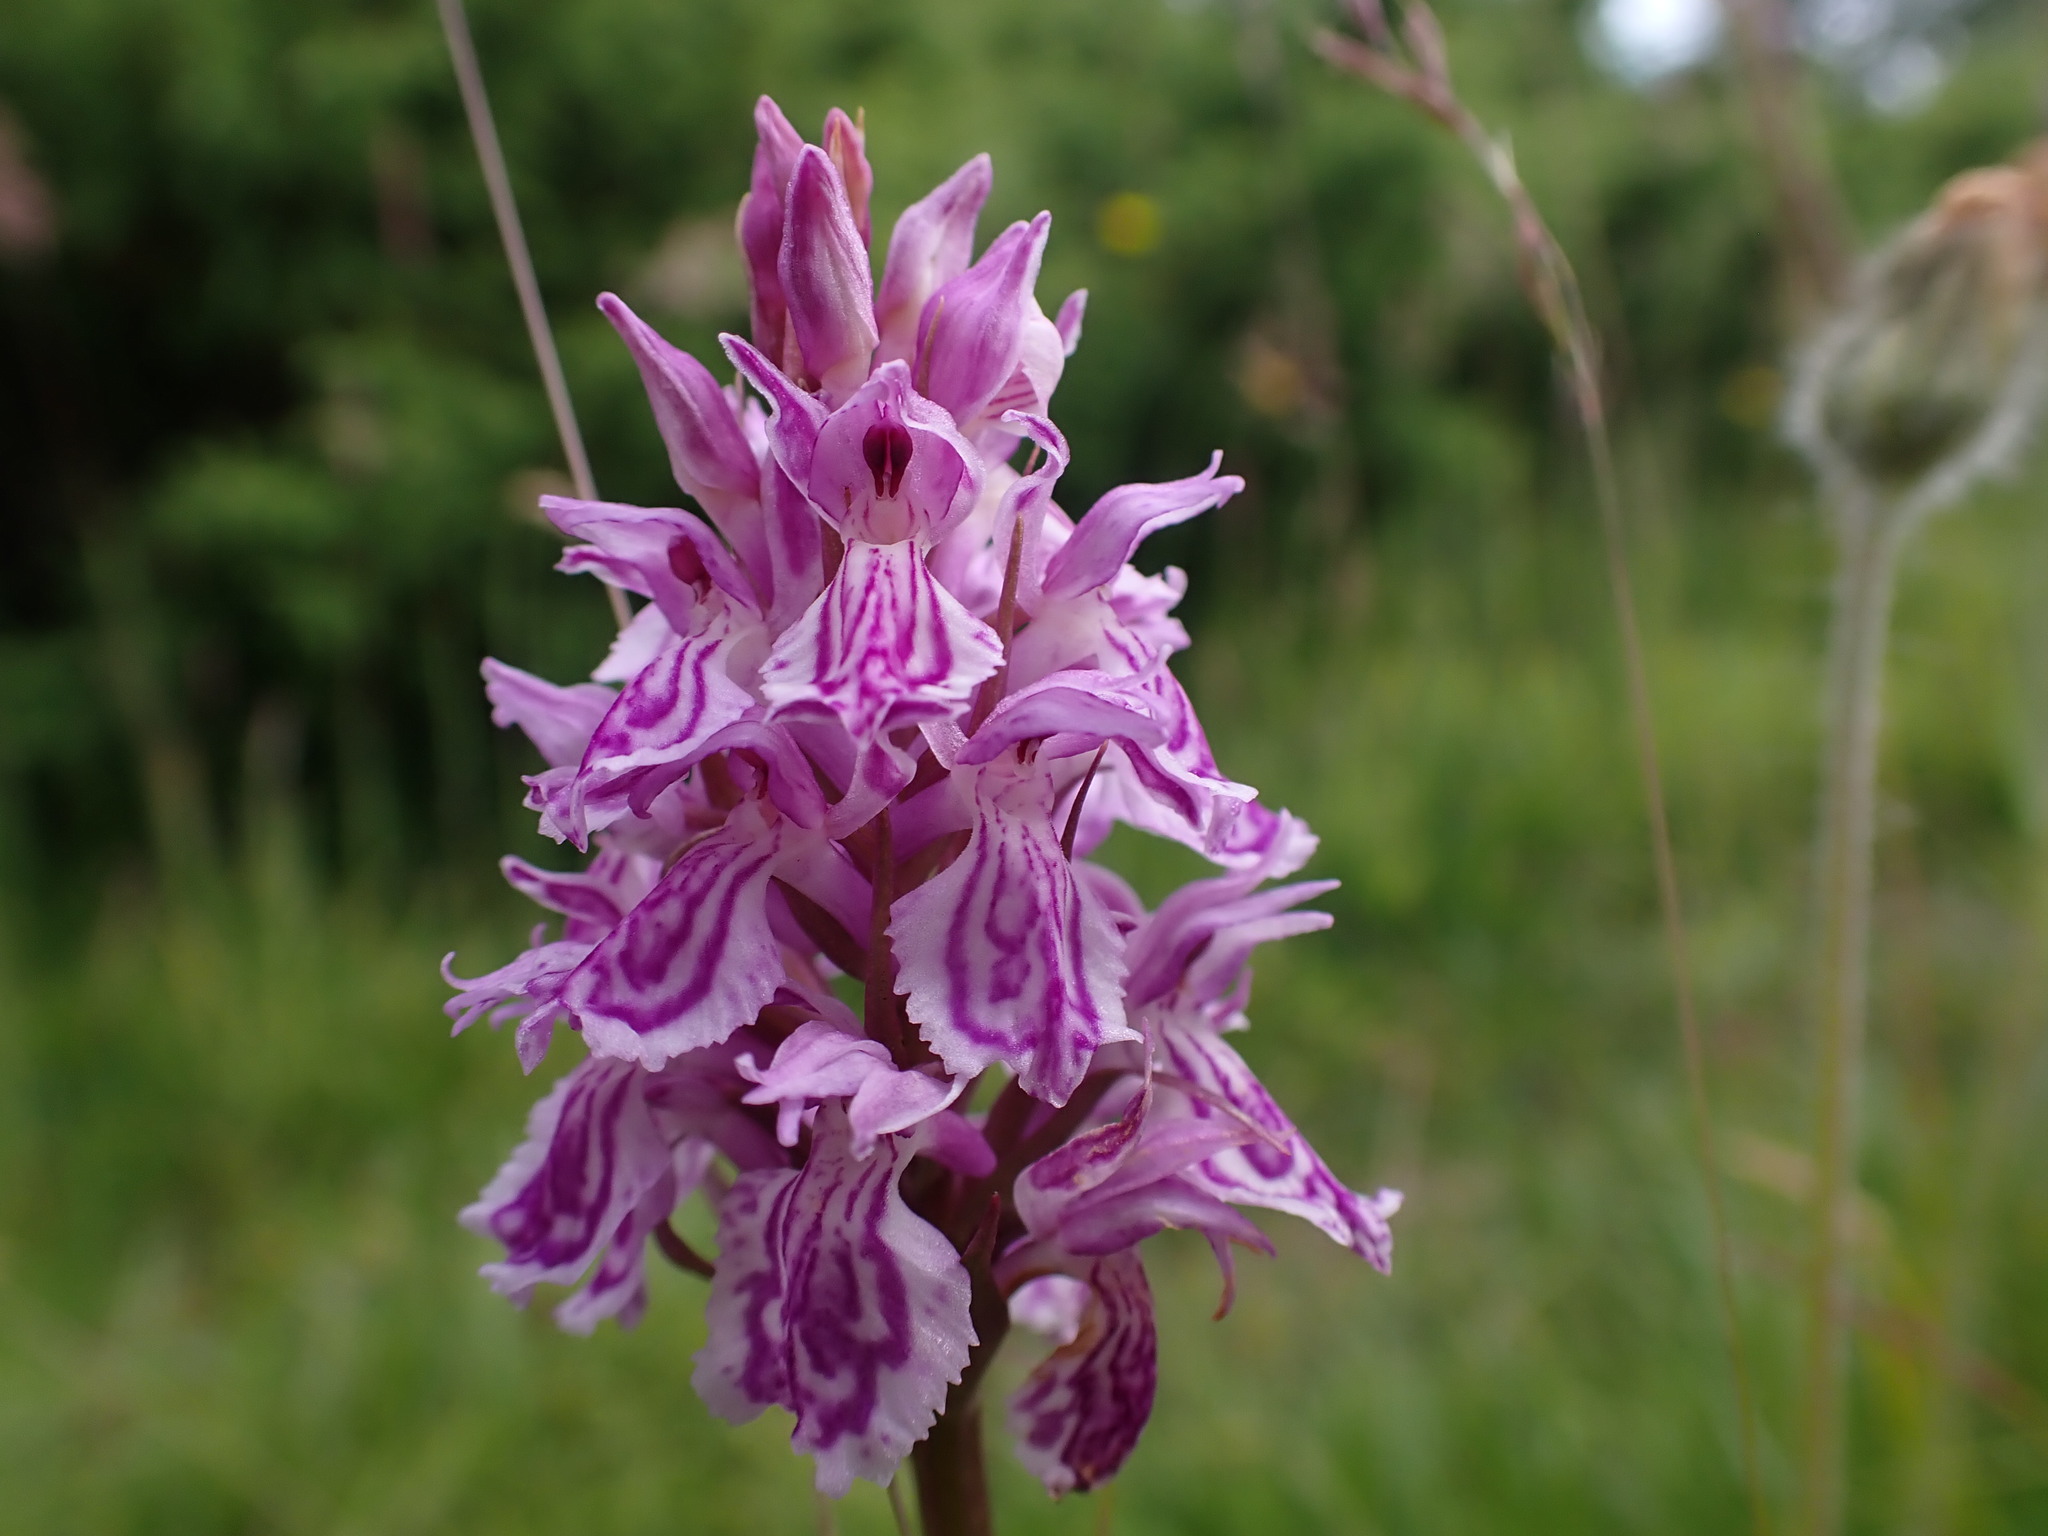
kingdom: Plantae
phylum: Tracheophyta
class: Liliopsida
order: Asparagales
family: Orchidaceae
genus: Dactylorhiza
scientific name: Dactylorhiza maculata
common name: Heath spotted-orchid
